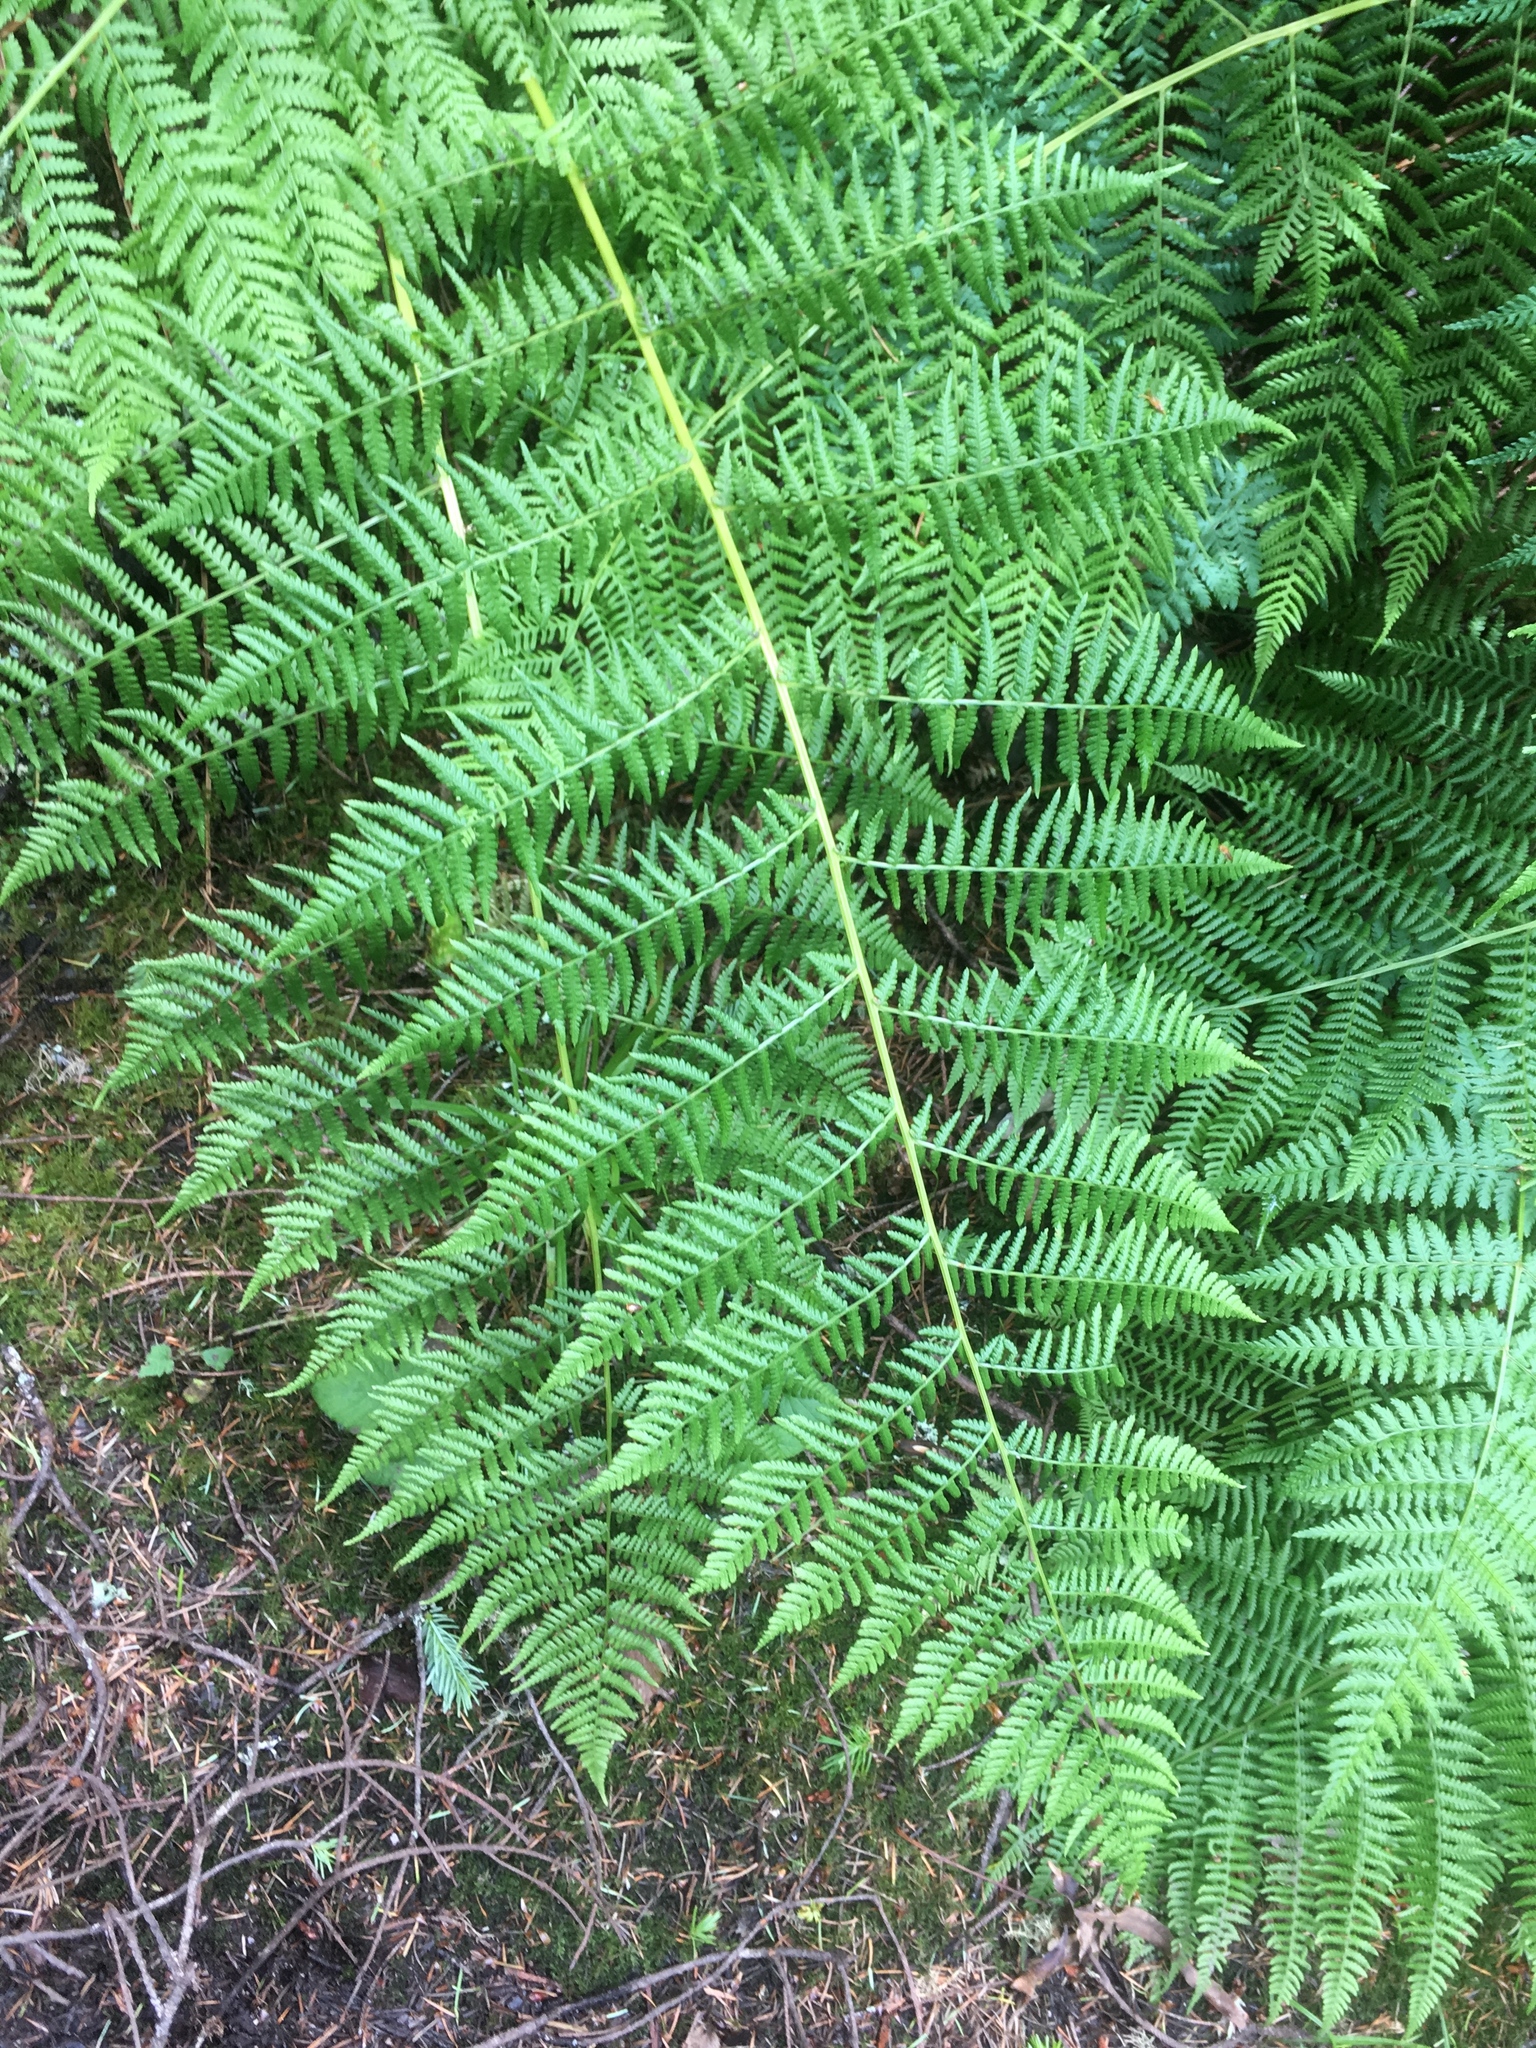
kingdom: Plantae
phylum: Tracheophyta
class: Polypodiopsida
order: Polypodiales
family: Athyriaceae
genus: Athyrium
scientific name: Athyrium filix-femina
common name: Lady fern
